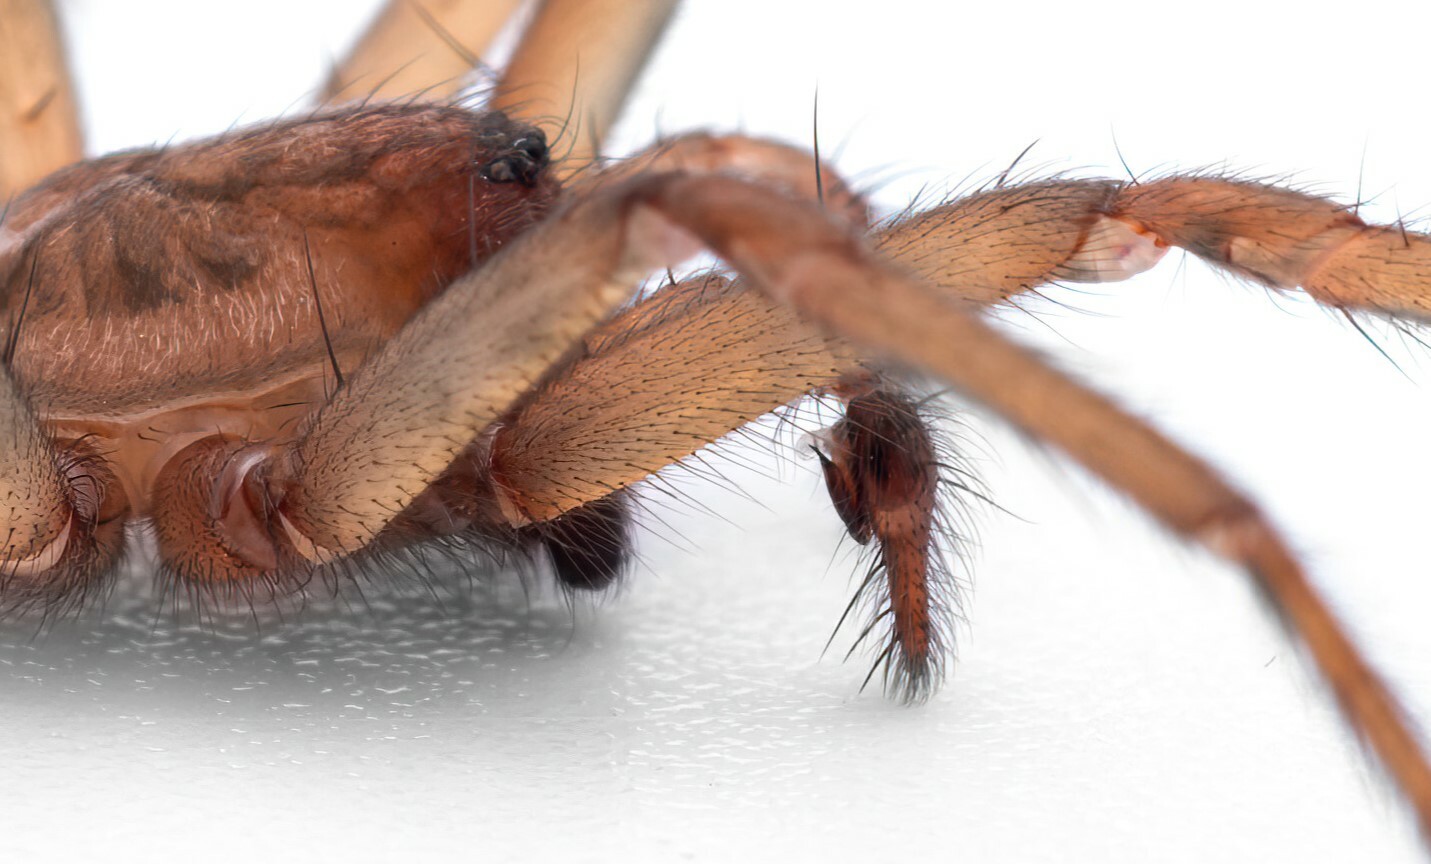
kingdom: Animalia
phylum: Arthropoda
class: Arachnida
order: Araneae
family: Agelenidae
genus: Eratigena
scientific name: Eratigena feminea
